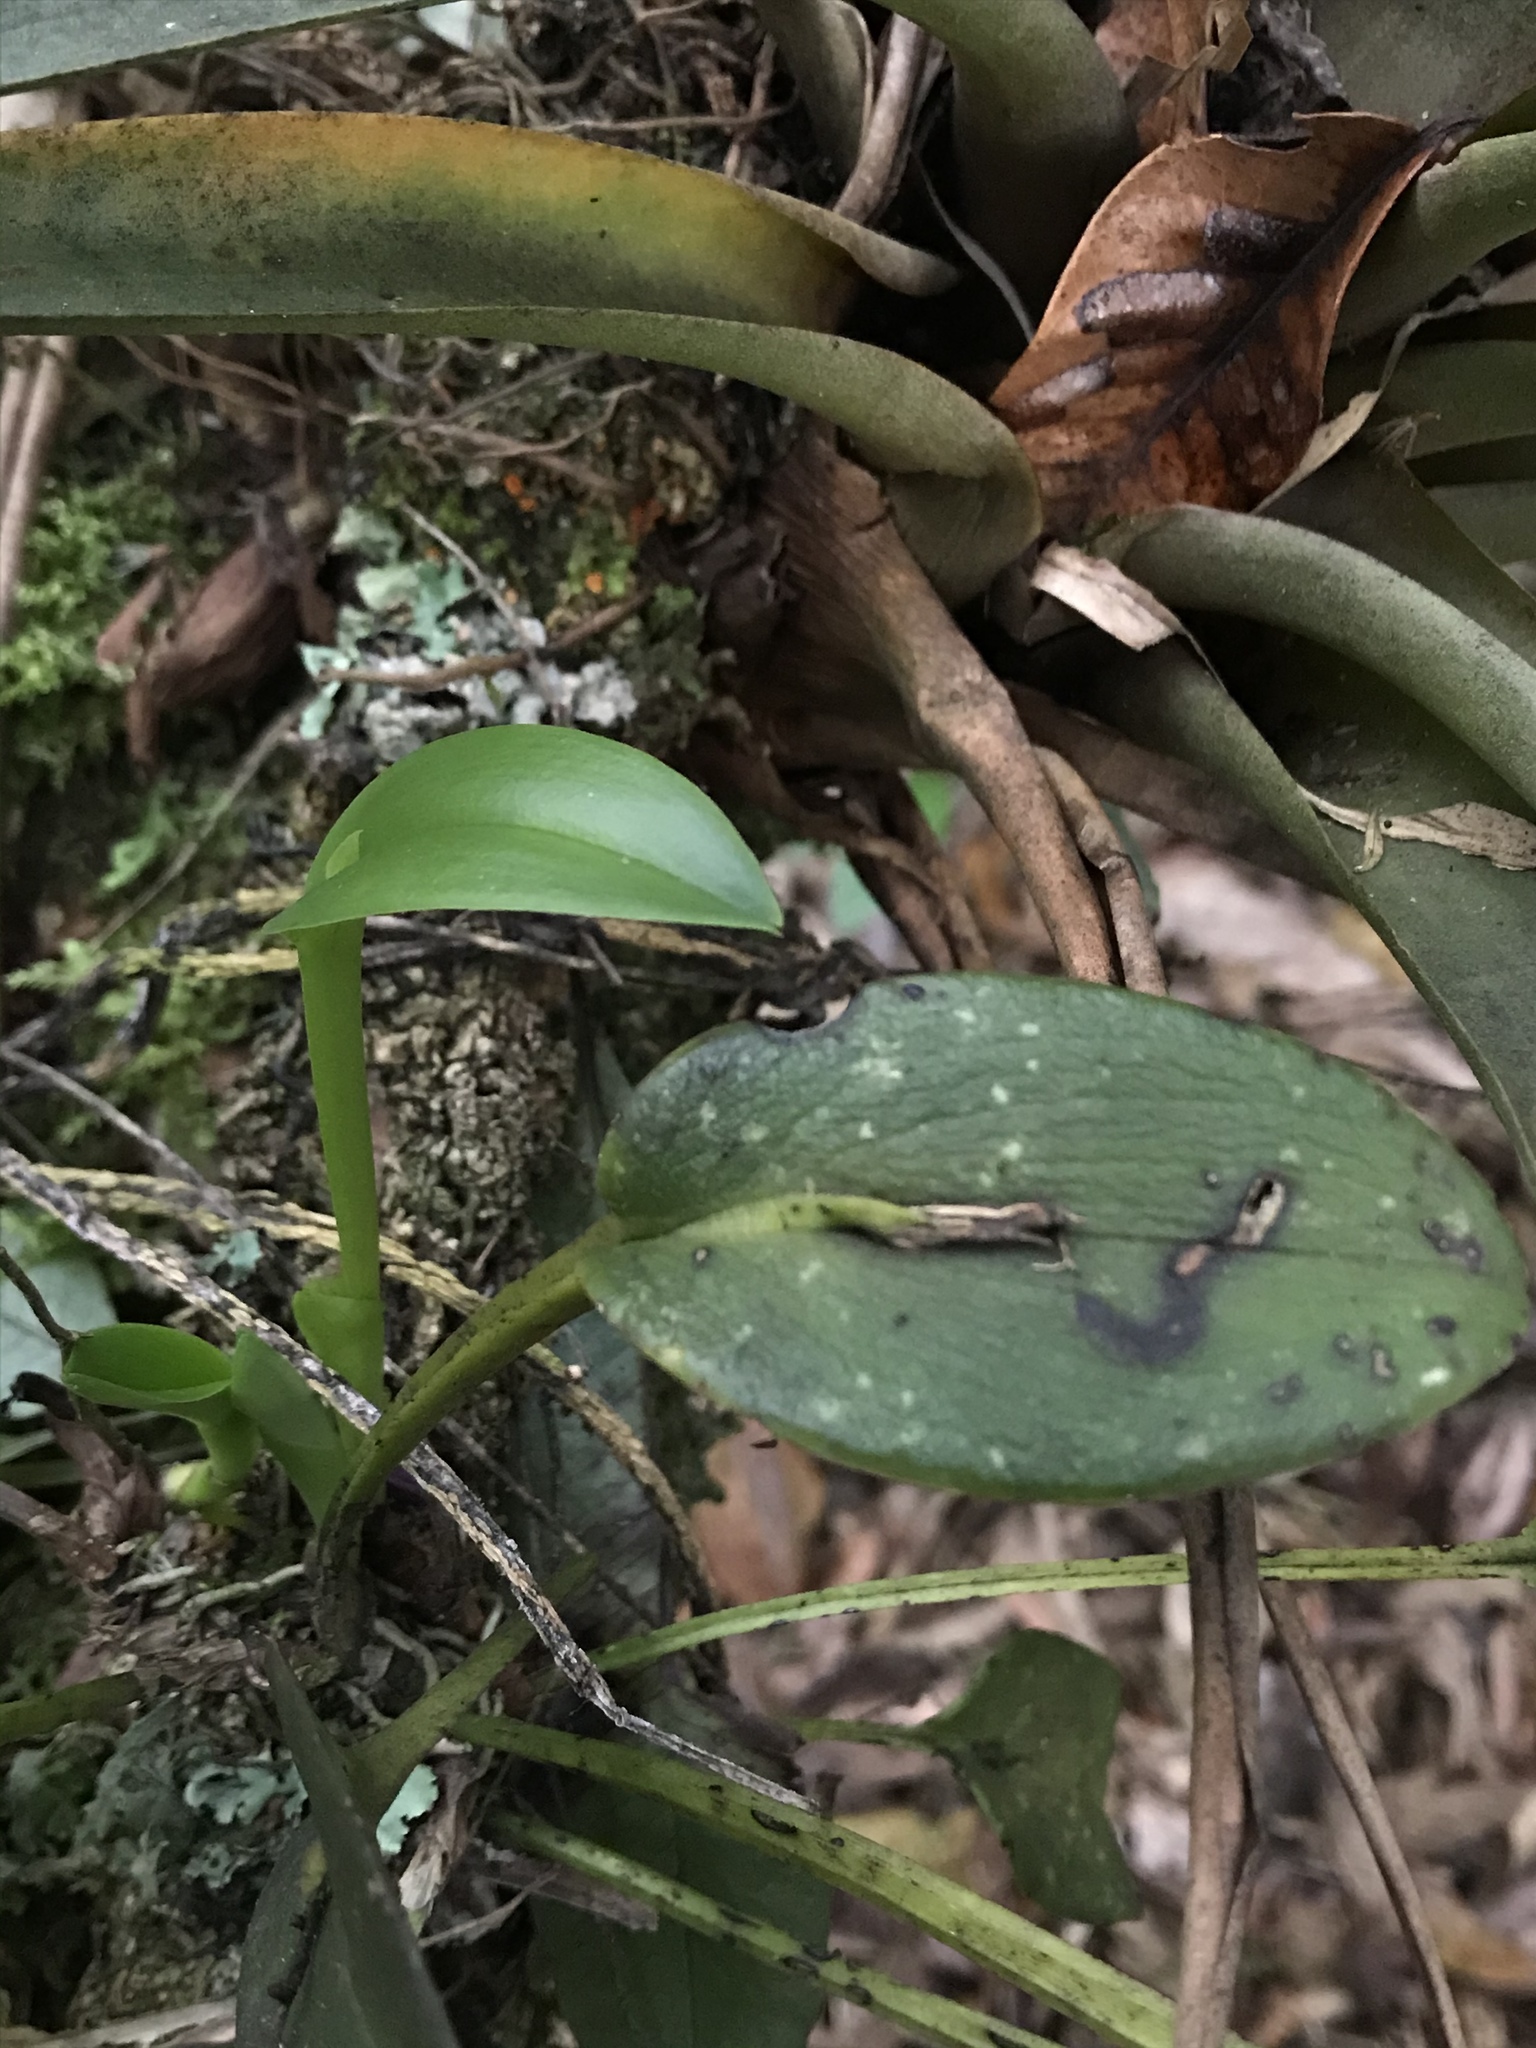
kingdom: Plantae
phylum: Tracheophyta
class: Liliopsida
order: Asparagales
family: Orchidaceae
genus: Acianthera
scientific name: Acianthera polystachya
